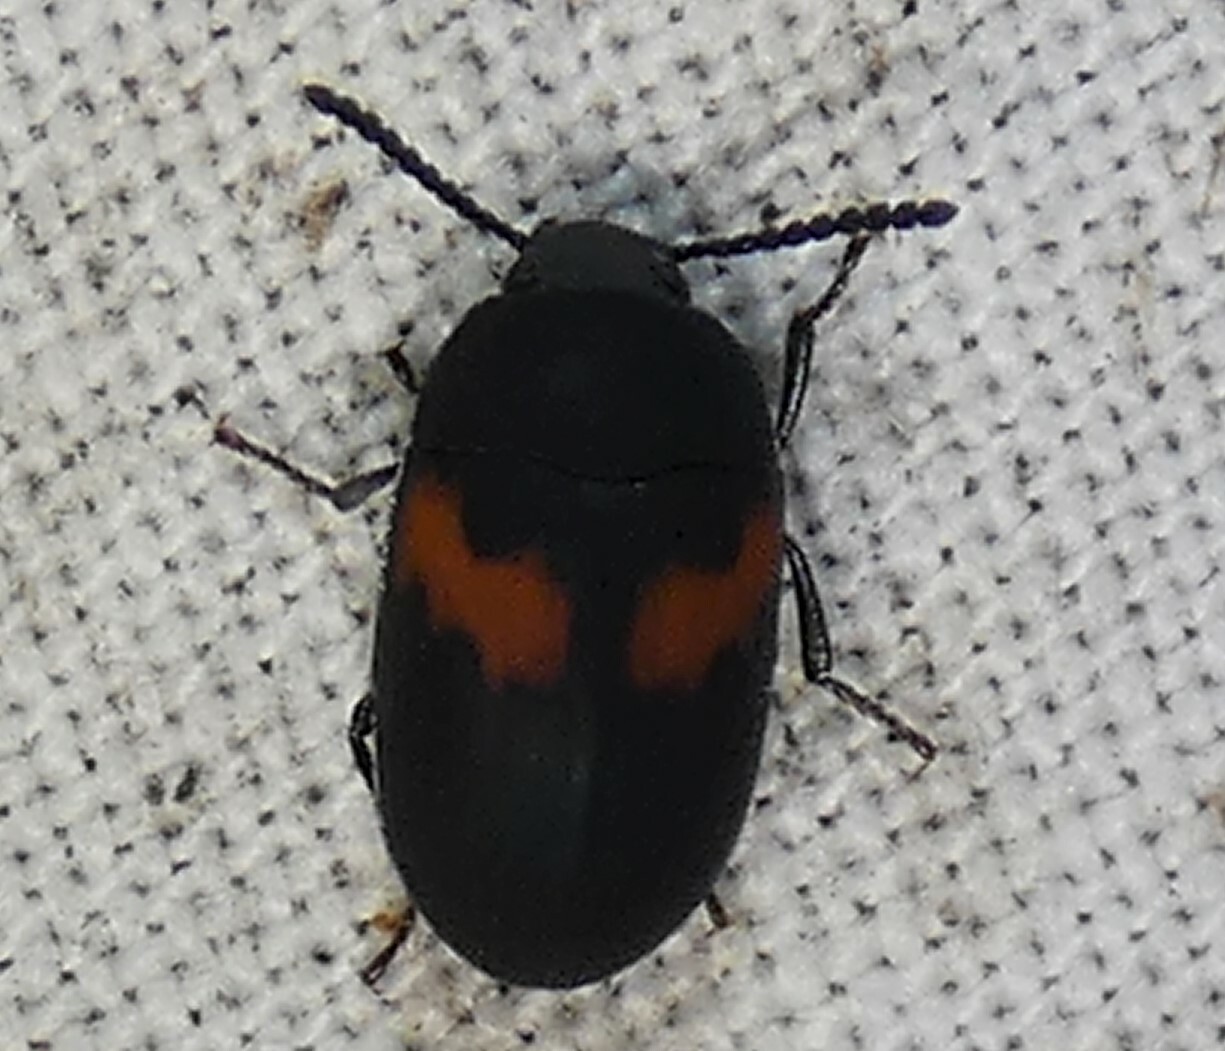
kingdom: Animalia
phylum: Arthropoda
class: Insecta
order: Coleoptera
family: Tenebrionidae
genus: Platydema
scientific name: Platydema elliptica
